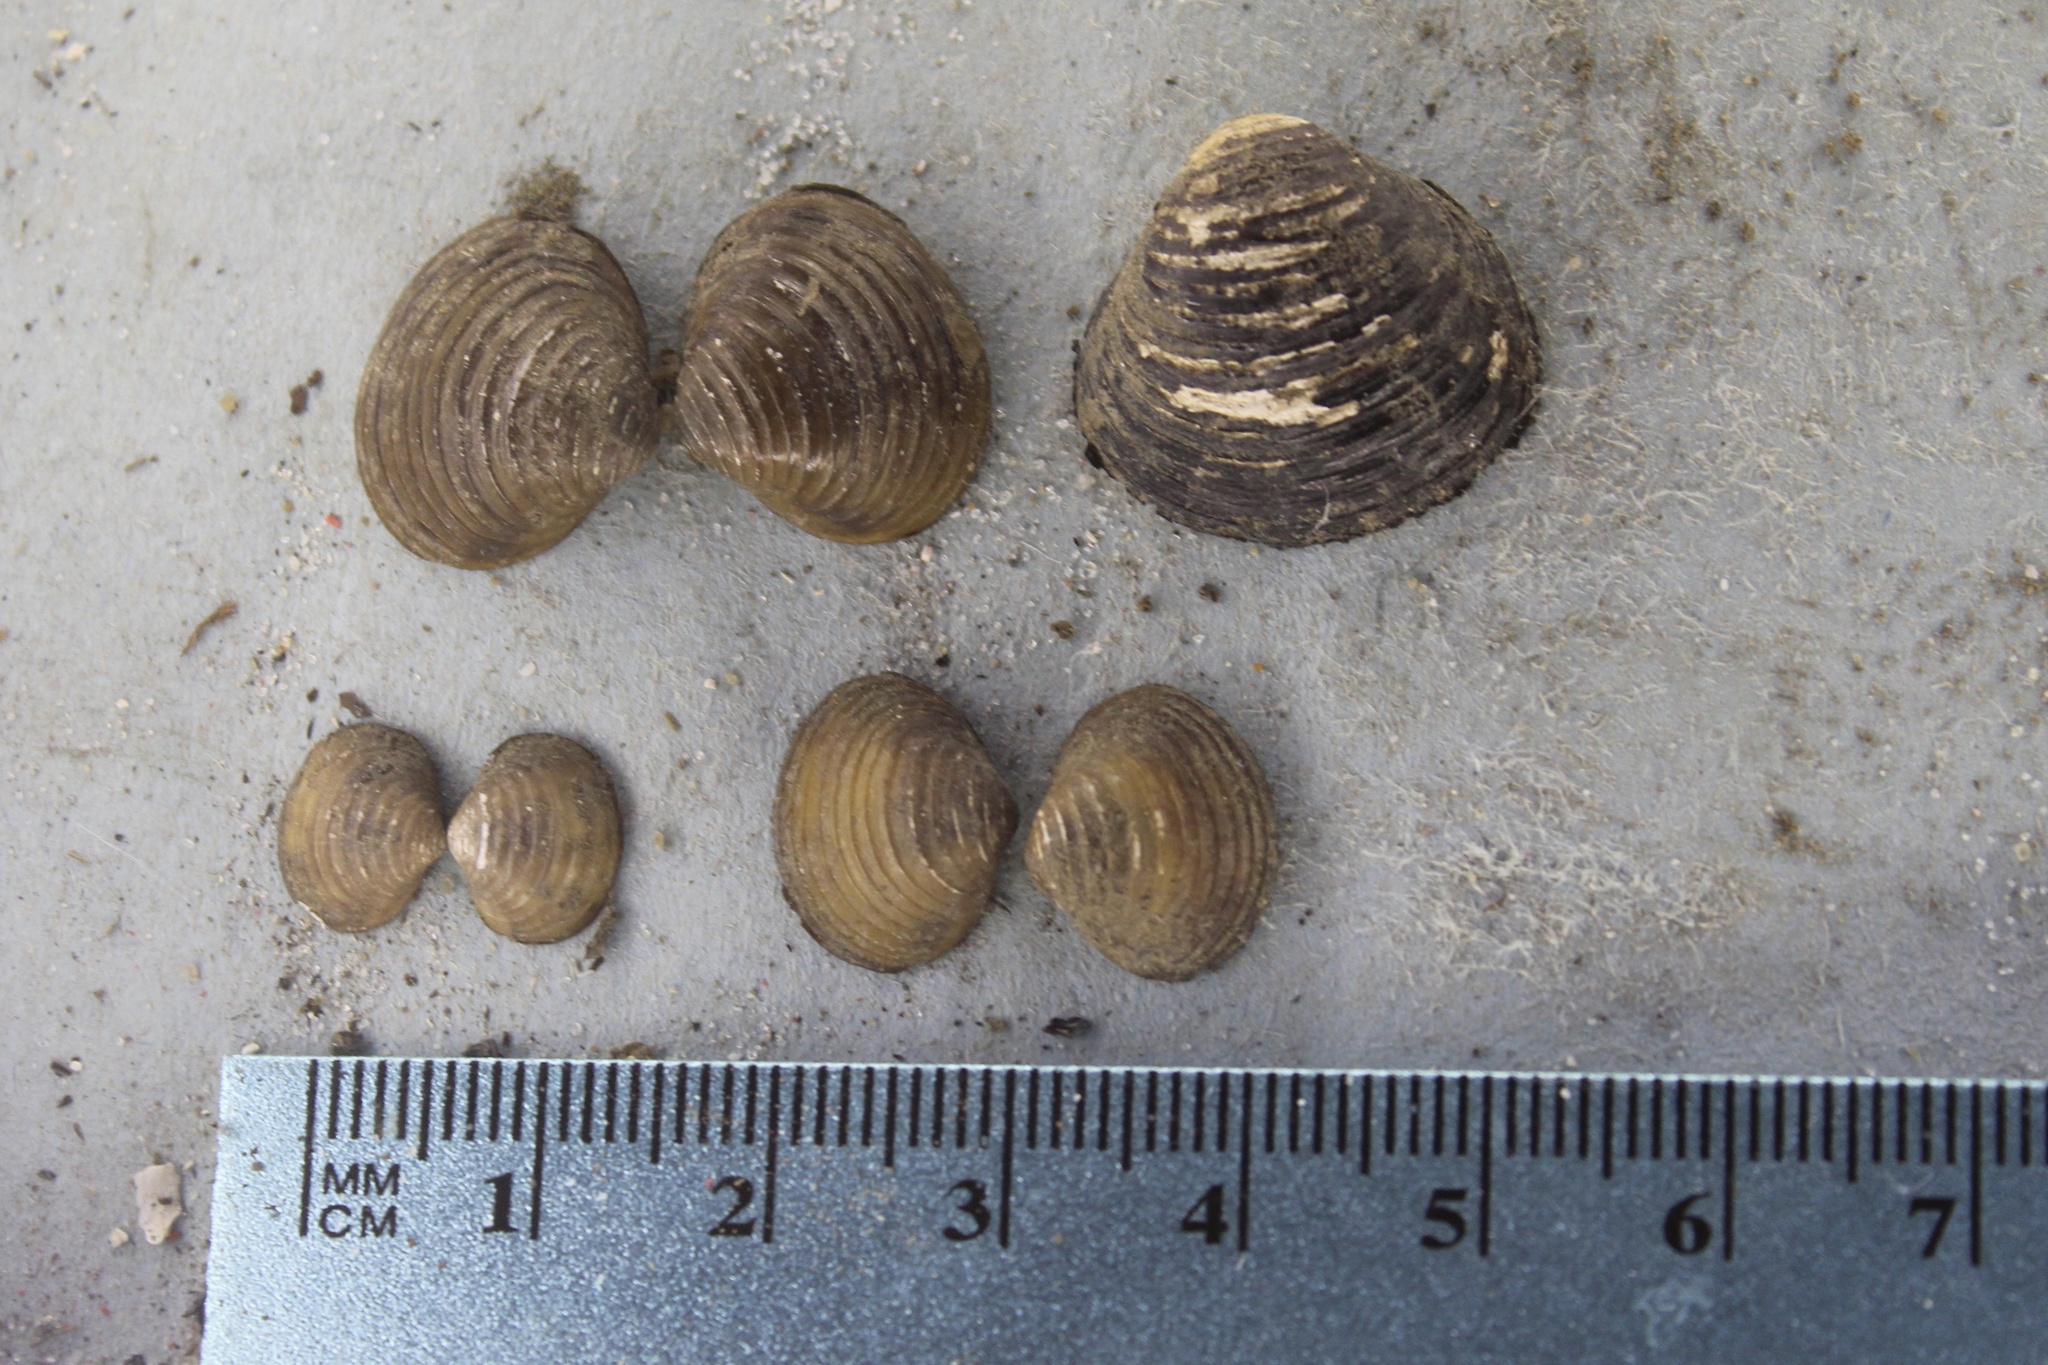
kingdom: Animalia
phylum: Mollusca
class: Bivalvia
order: Venerida
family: Cyrenidae
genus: Corbicula
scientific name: Corbicula fluminea
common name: Asian clam
